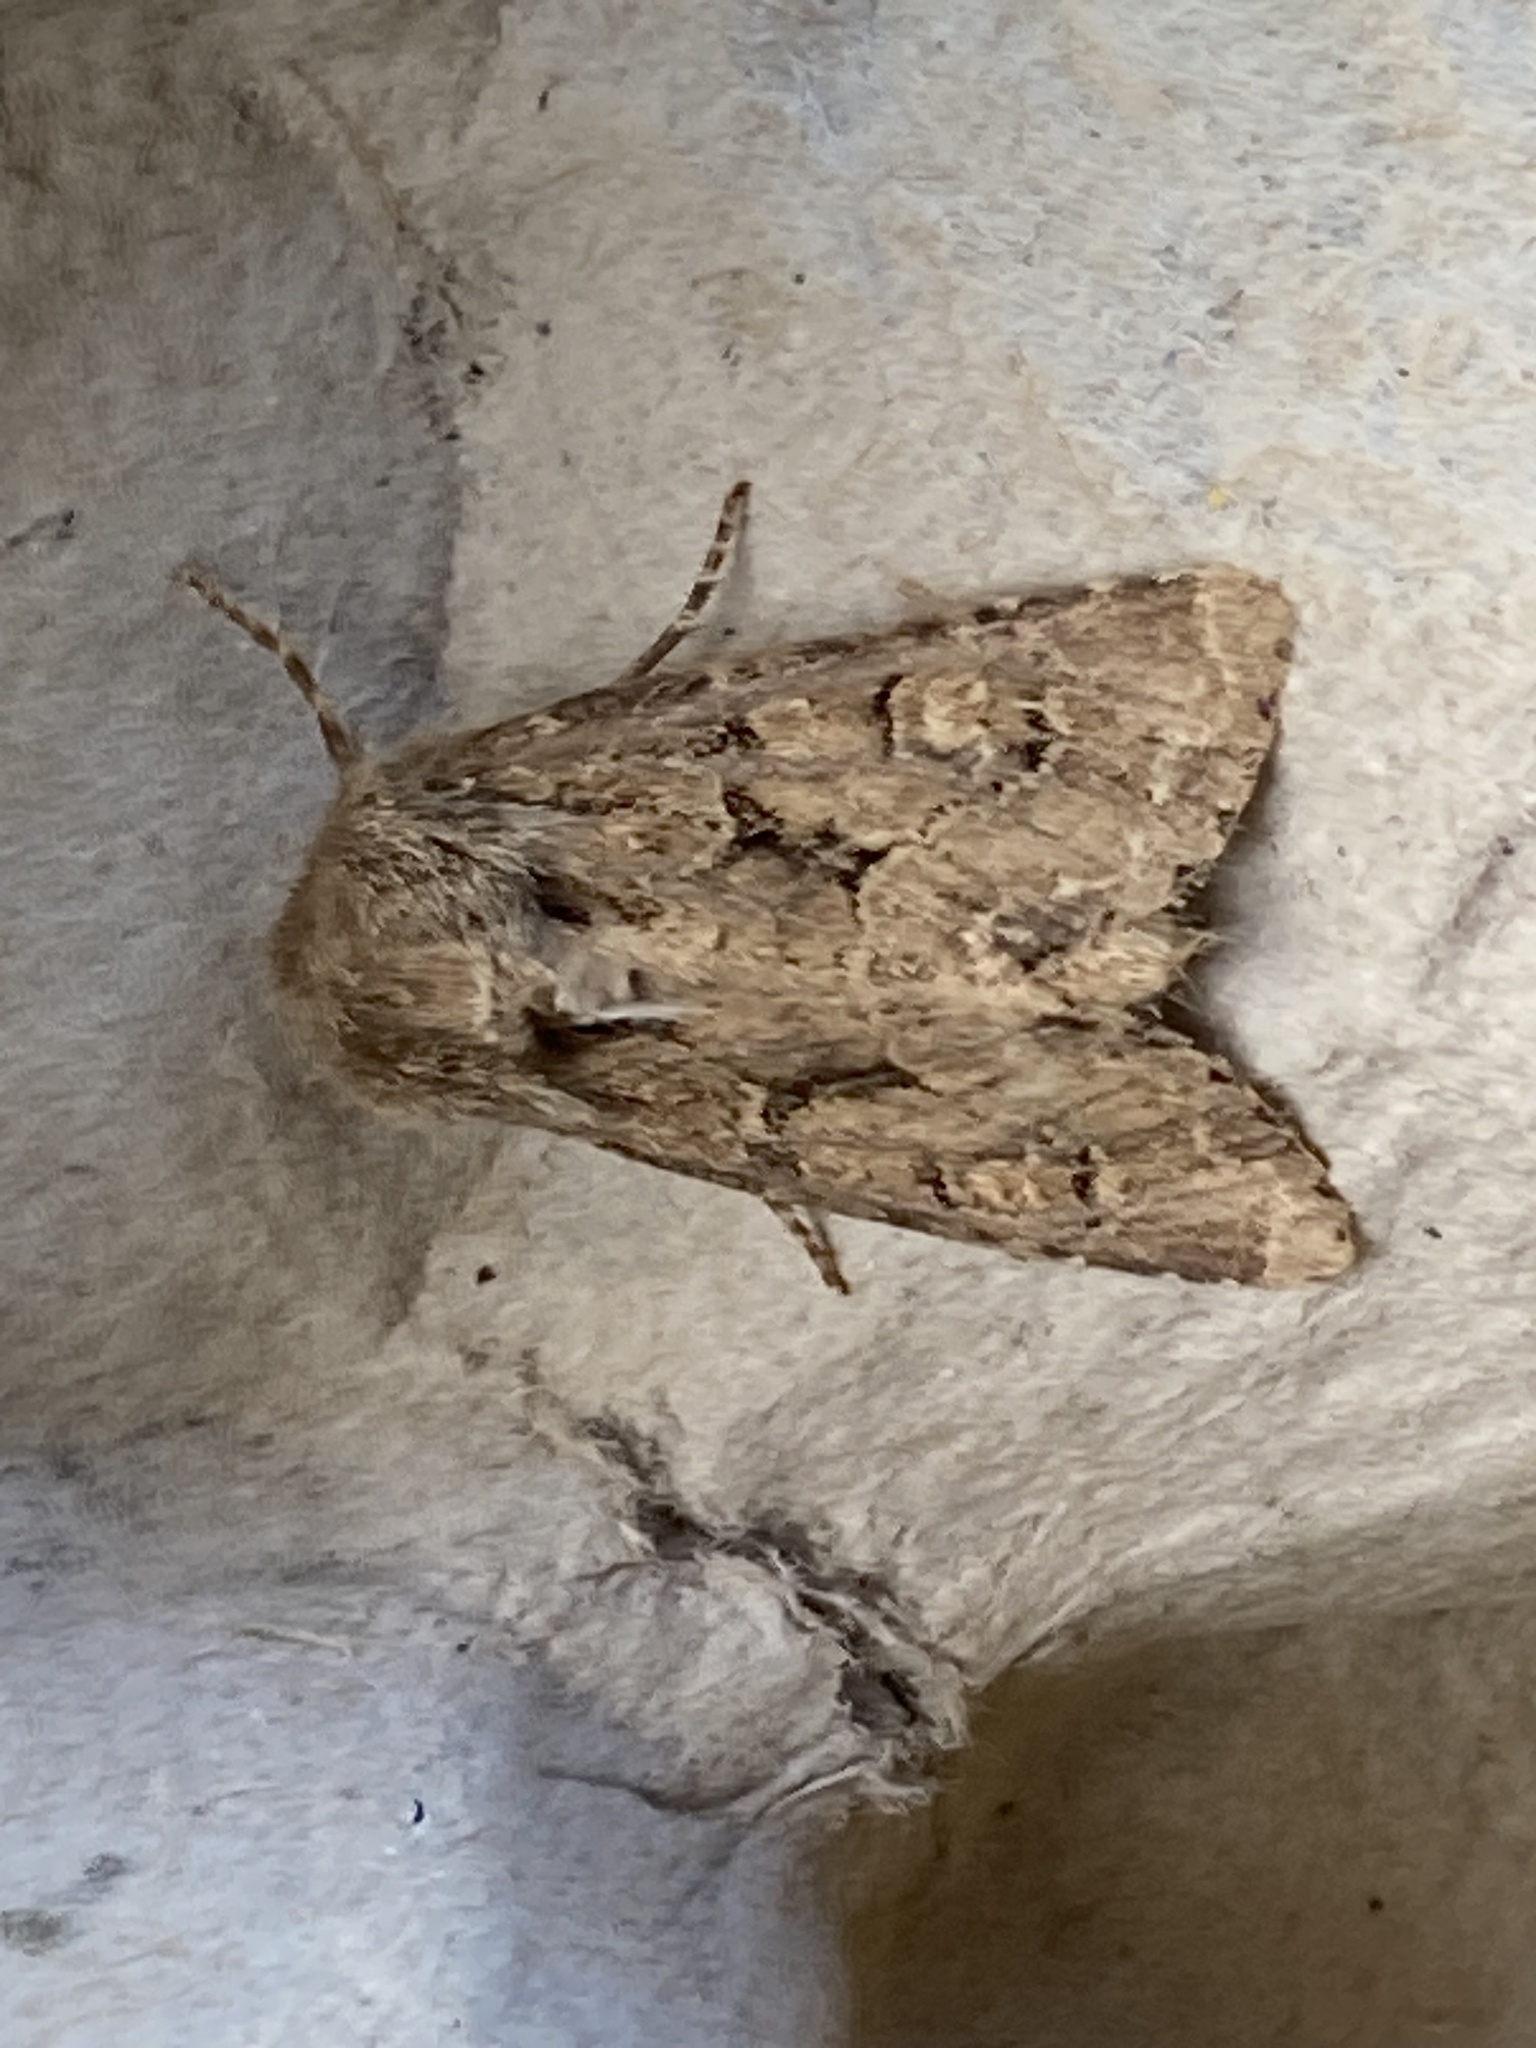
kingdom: Animalia
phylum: Arthropoda
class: Insecta
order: Lepidoptera
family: Noctuidae
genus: Luperina
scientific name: Luperina testacea
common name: Flounced rustic
